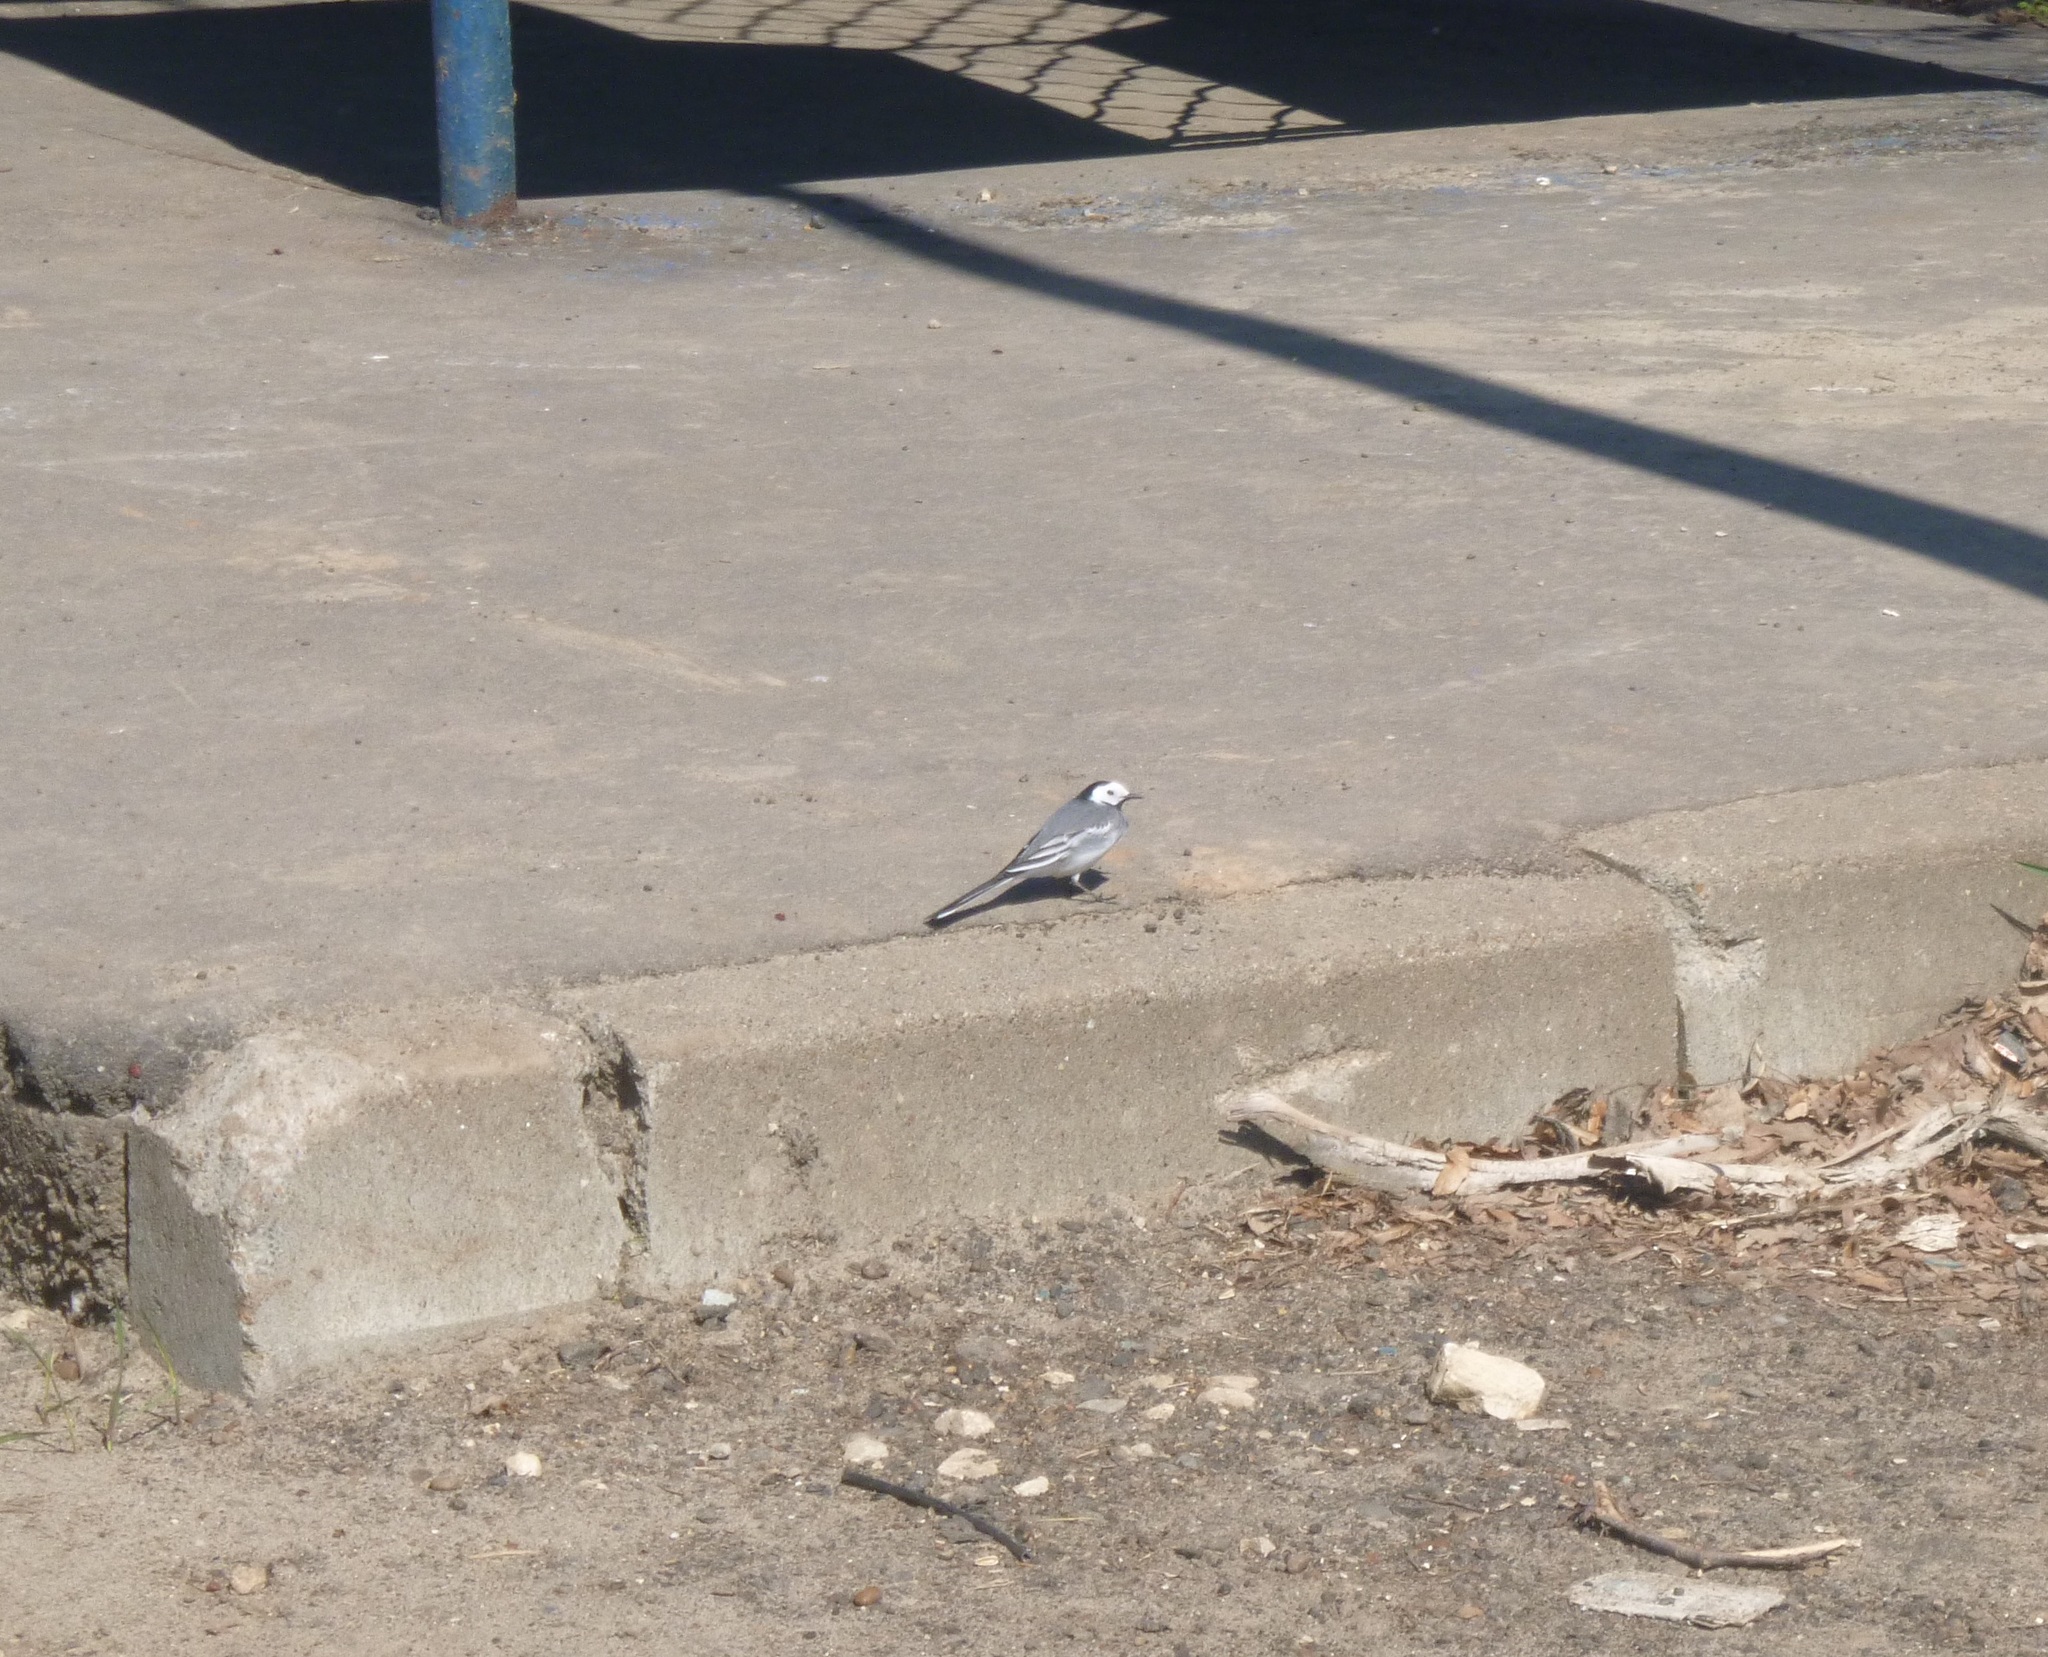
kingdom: Animalia
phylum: Chordata
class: Aves
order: Passeriformes
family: Motacillidae
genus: Motacilla
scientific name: Motacilla alba
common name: White wagtail
